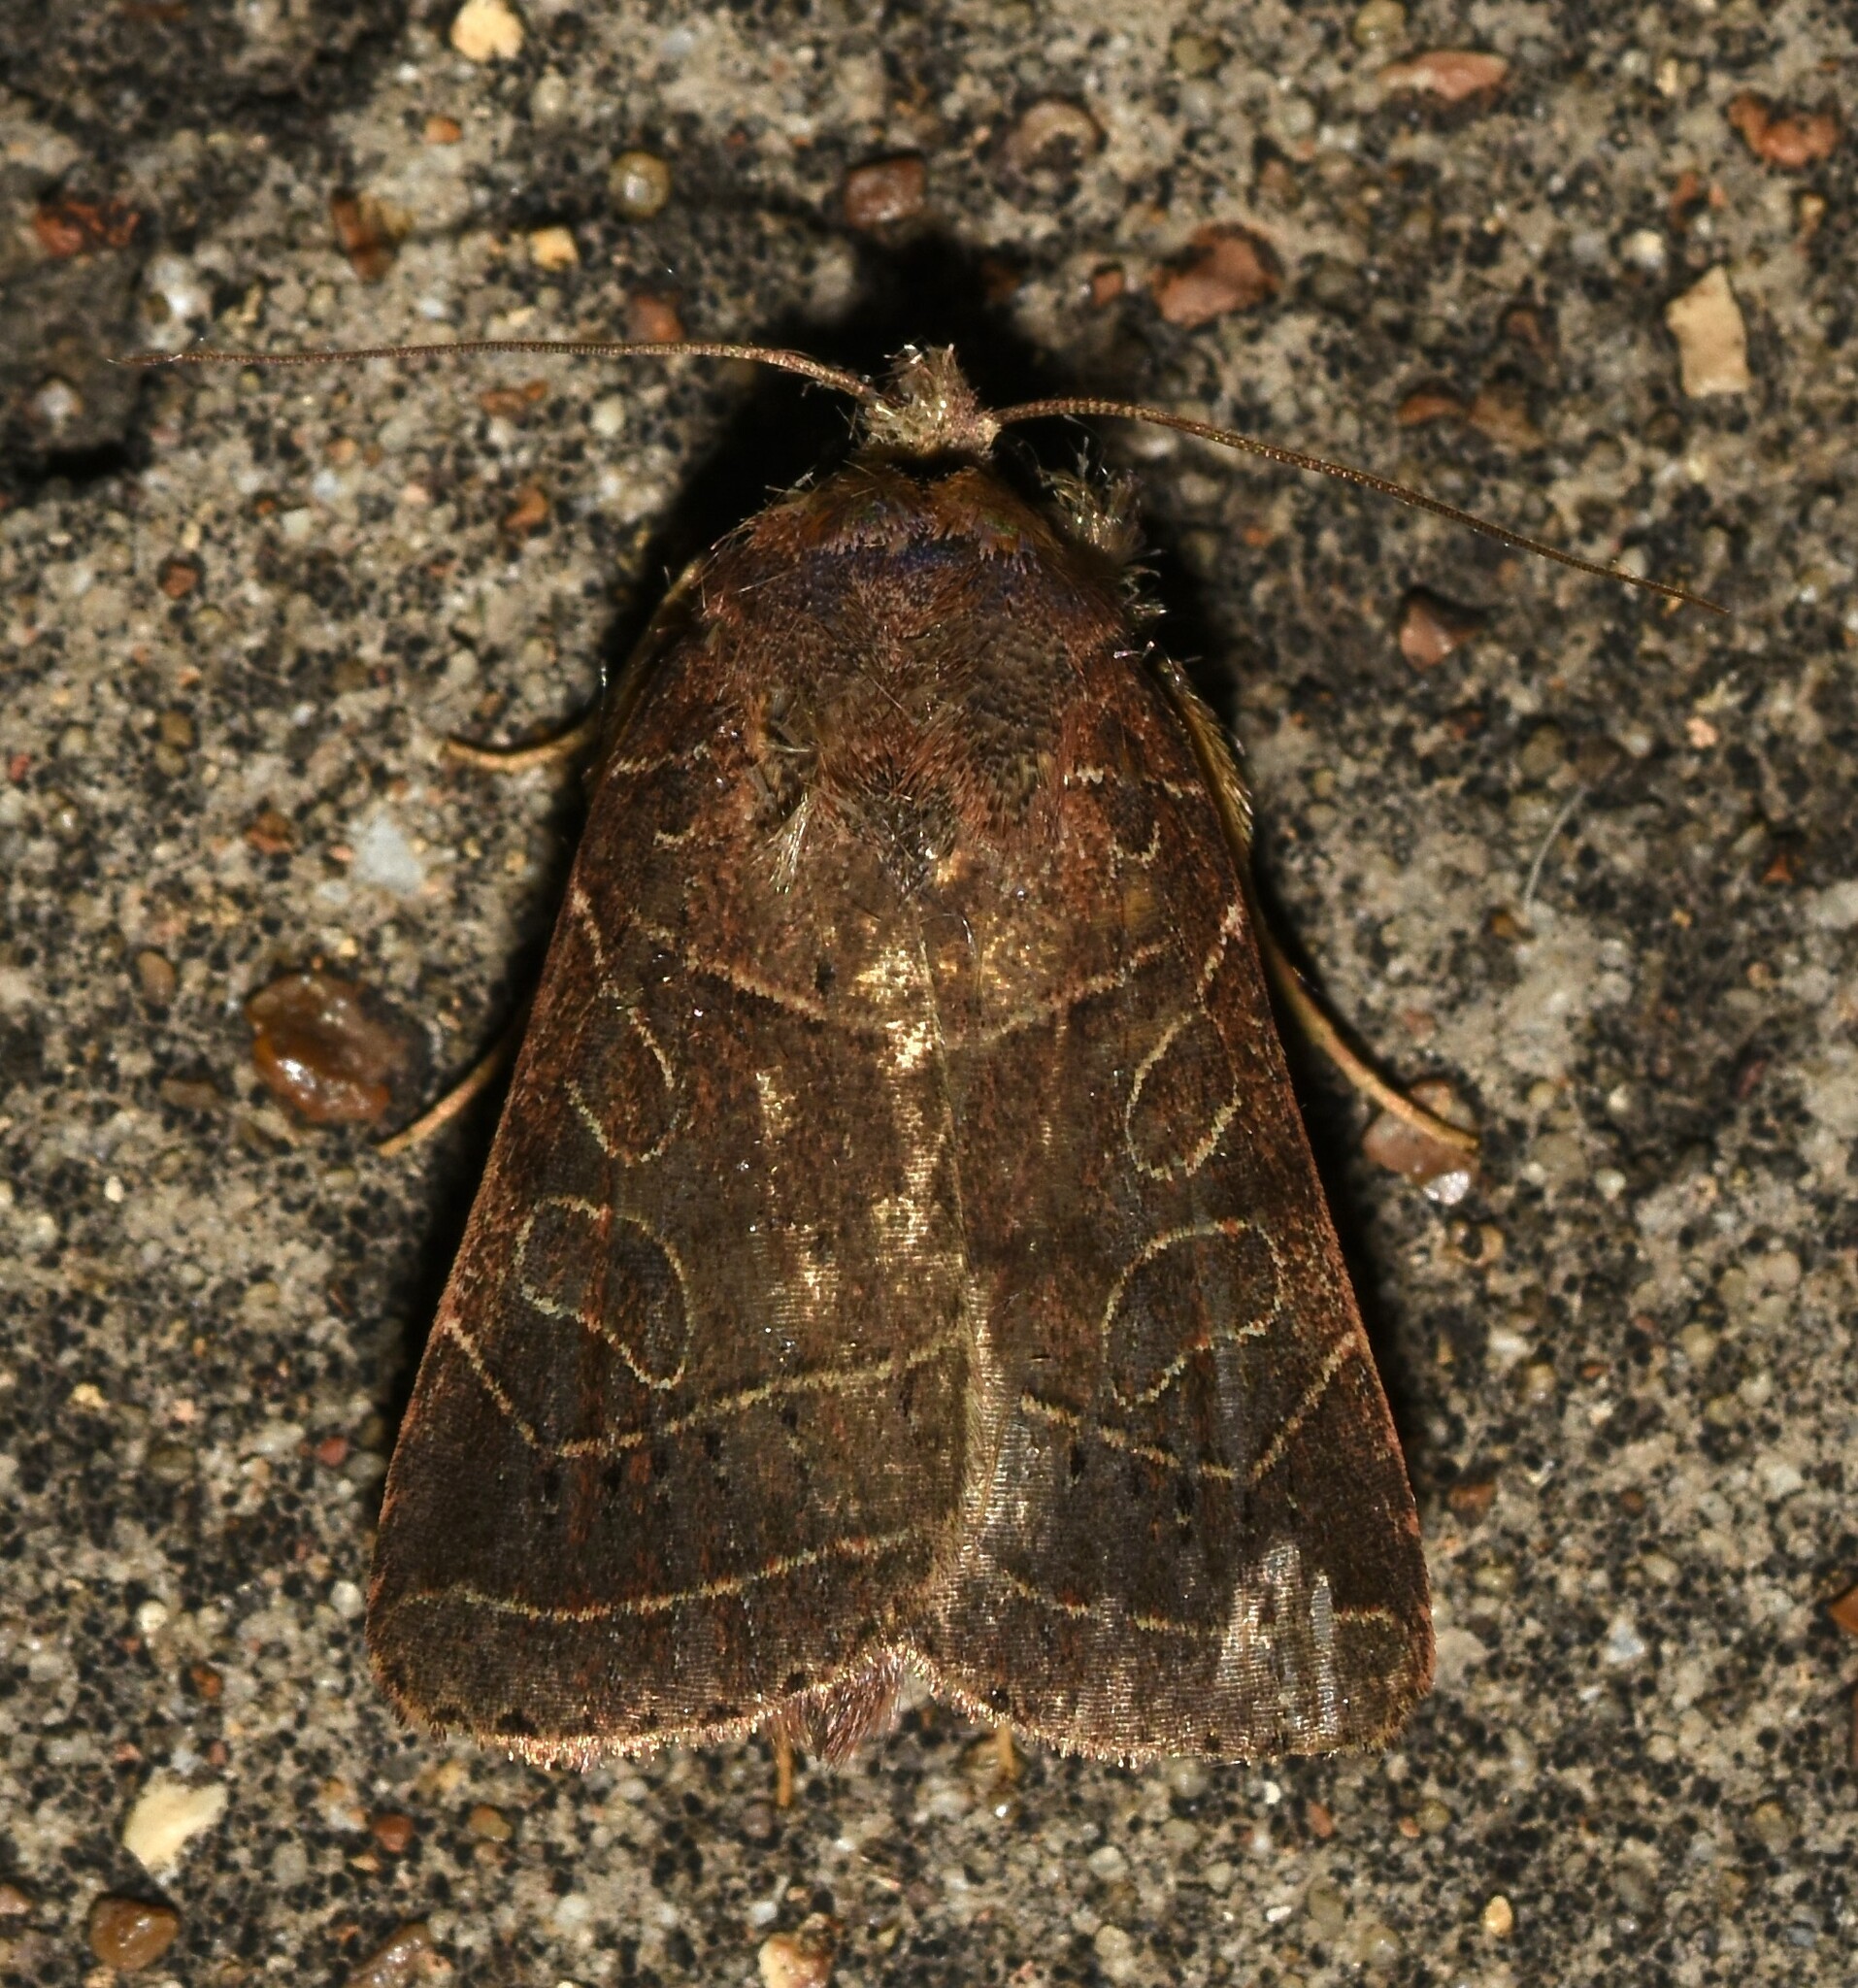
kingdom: Animalia
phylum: Arthropoda
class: Insecta
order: Lepidoptera
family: Noctuidae
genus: Orthodes
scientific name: Orthodes majuscula
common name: Rustic quaker
